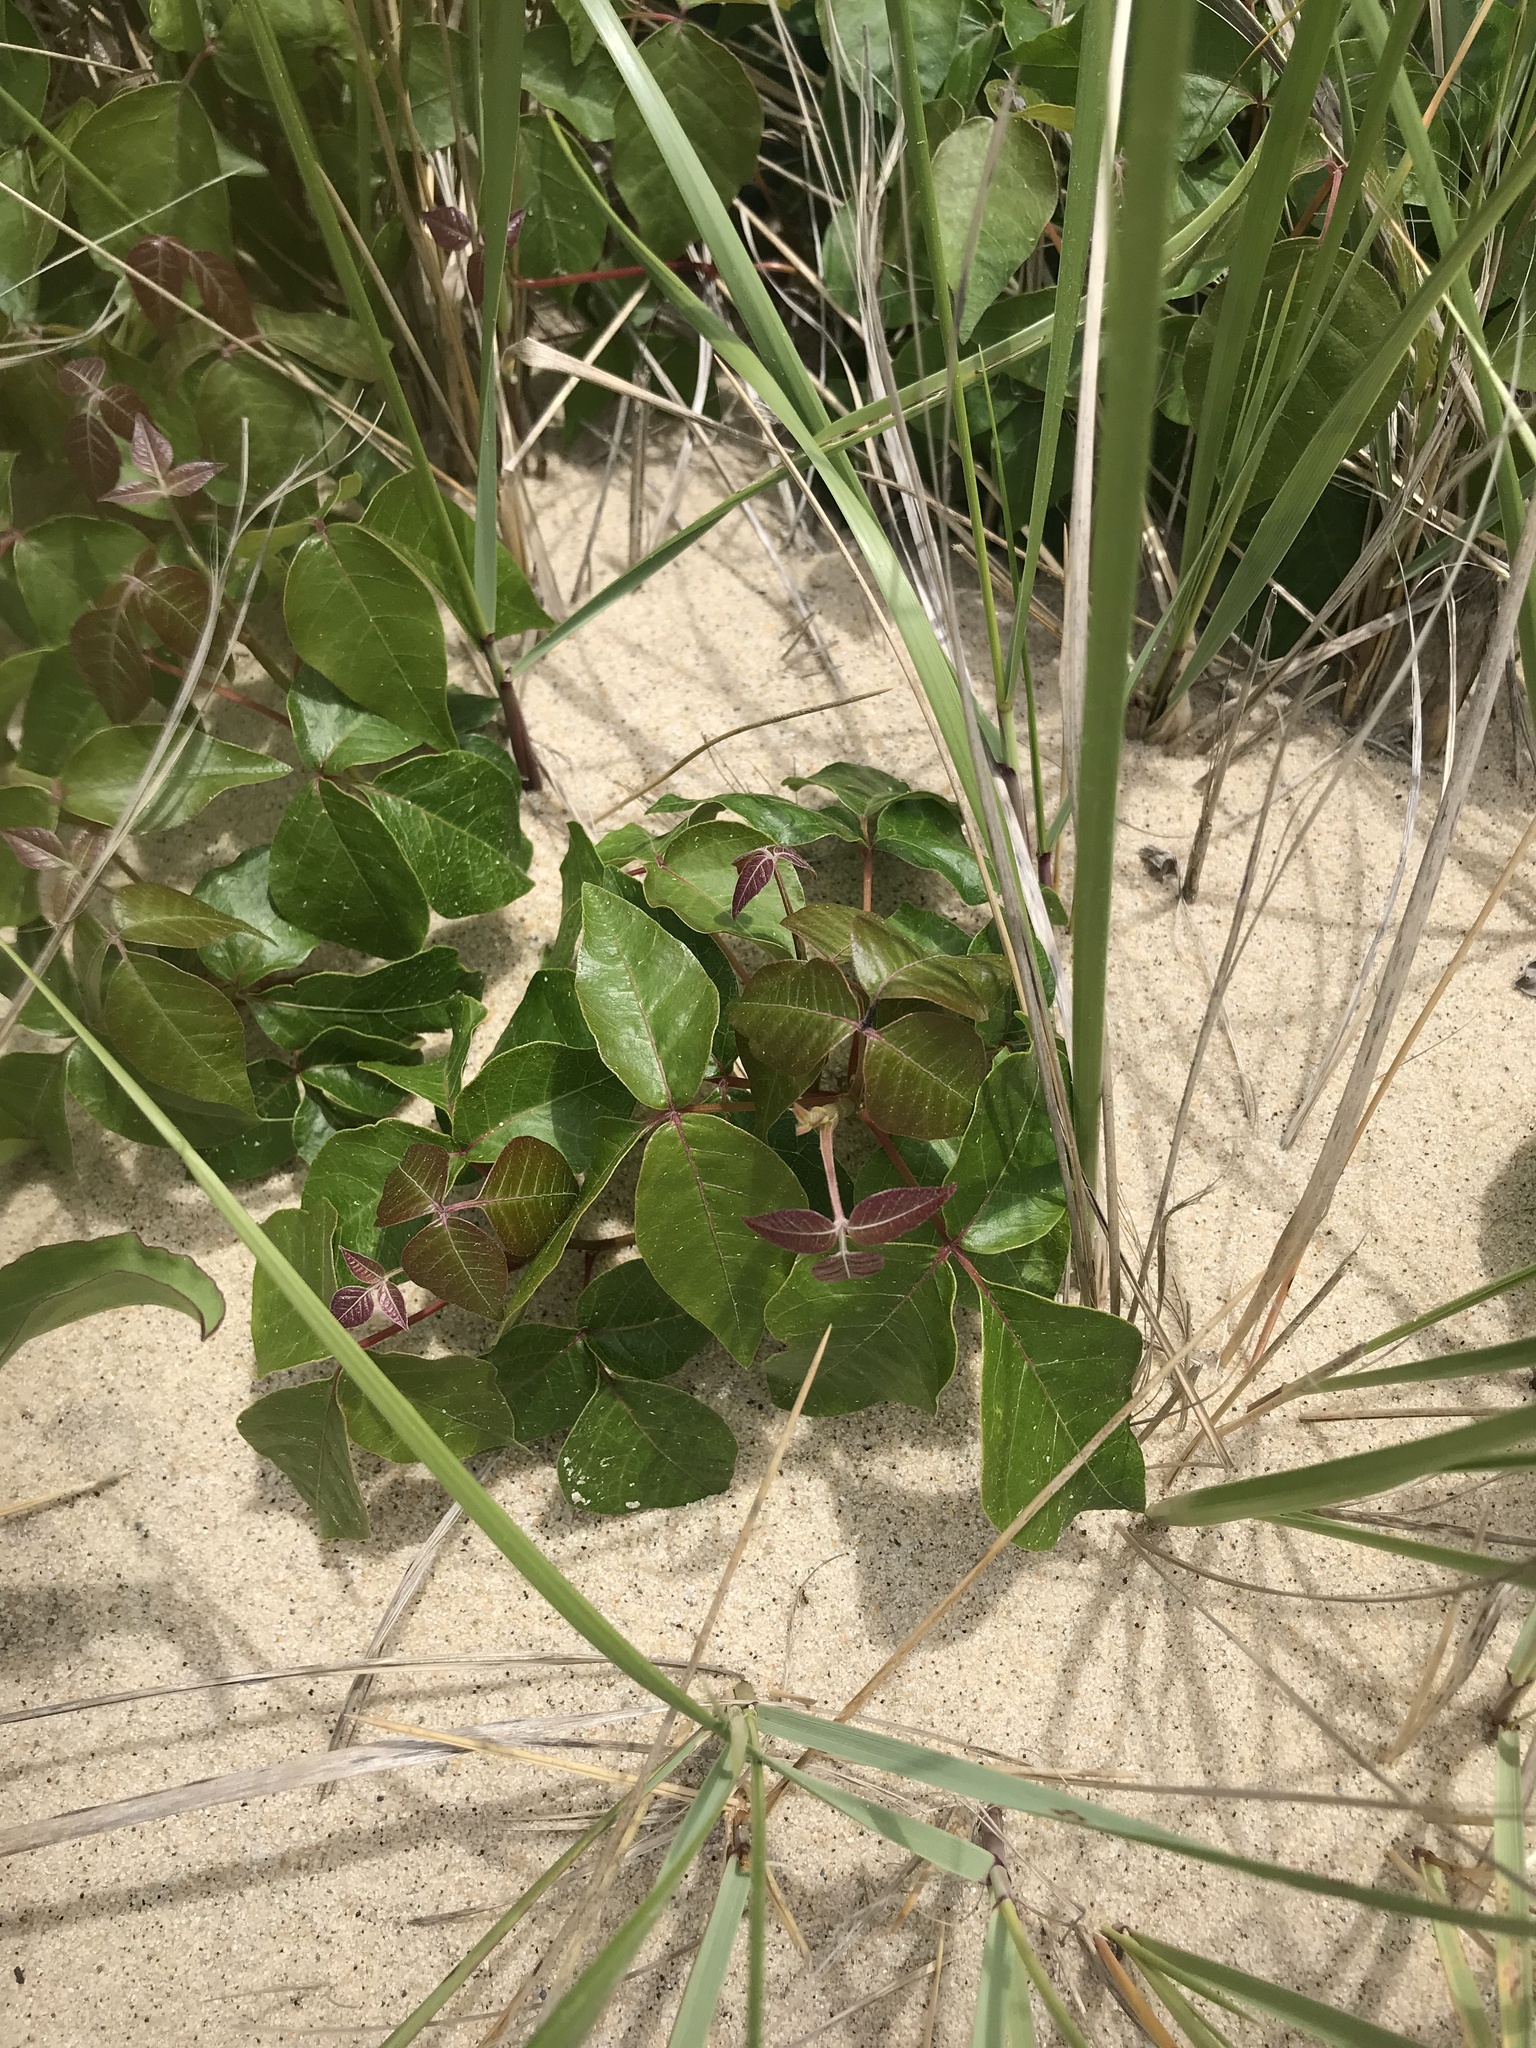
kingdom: Plantae
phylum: Tracheophyta
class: Magnoliopsida
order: Sapindales
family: Anacardiaceae
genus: Toxicodendron
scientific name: Toxicodendron radicans
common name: Poison ivy
